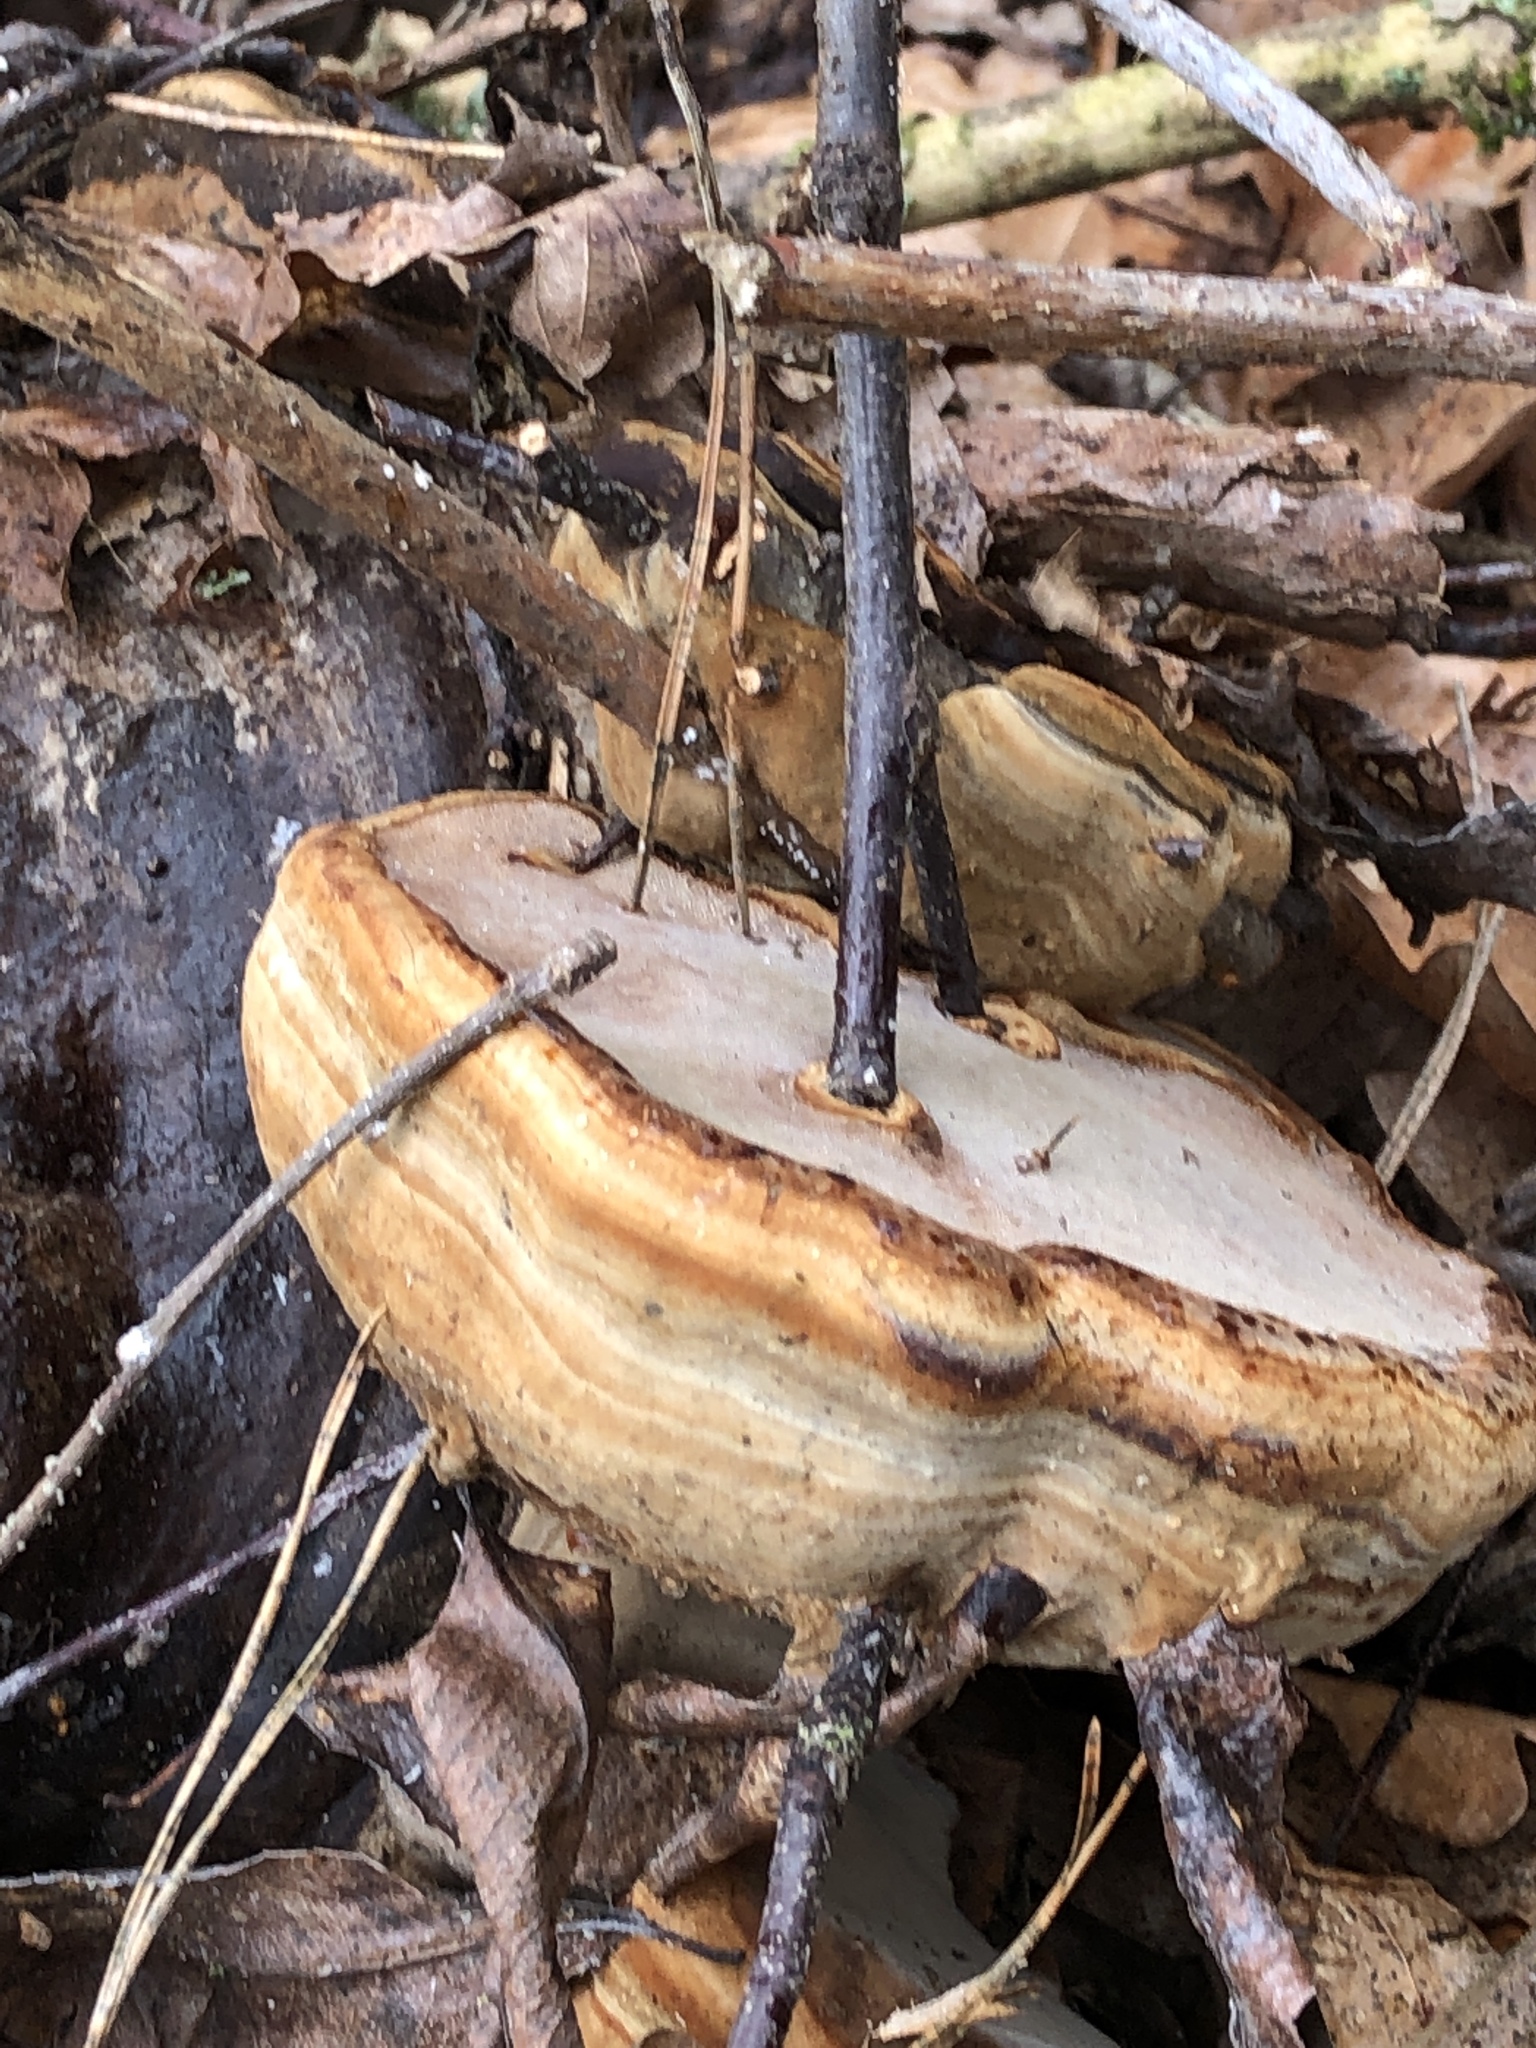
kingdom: Fungi
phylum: Basidiomycota
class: Agaricomycetes
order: Polyporales
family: Polyporaceae
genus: Fomes
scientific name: Fomes fomentarius
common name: Hoof fungus
